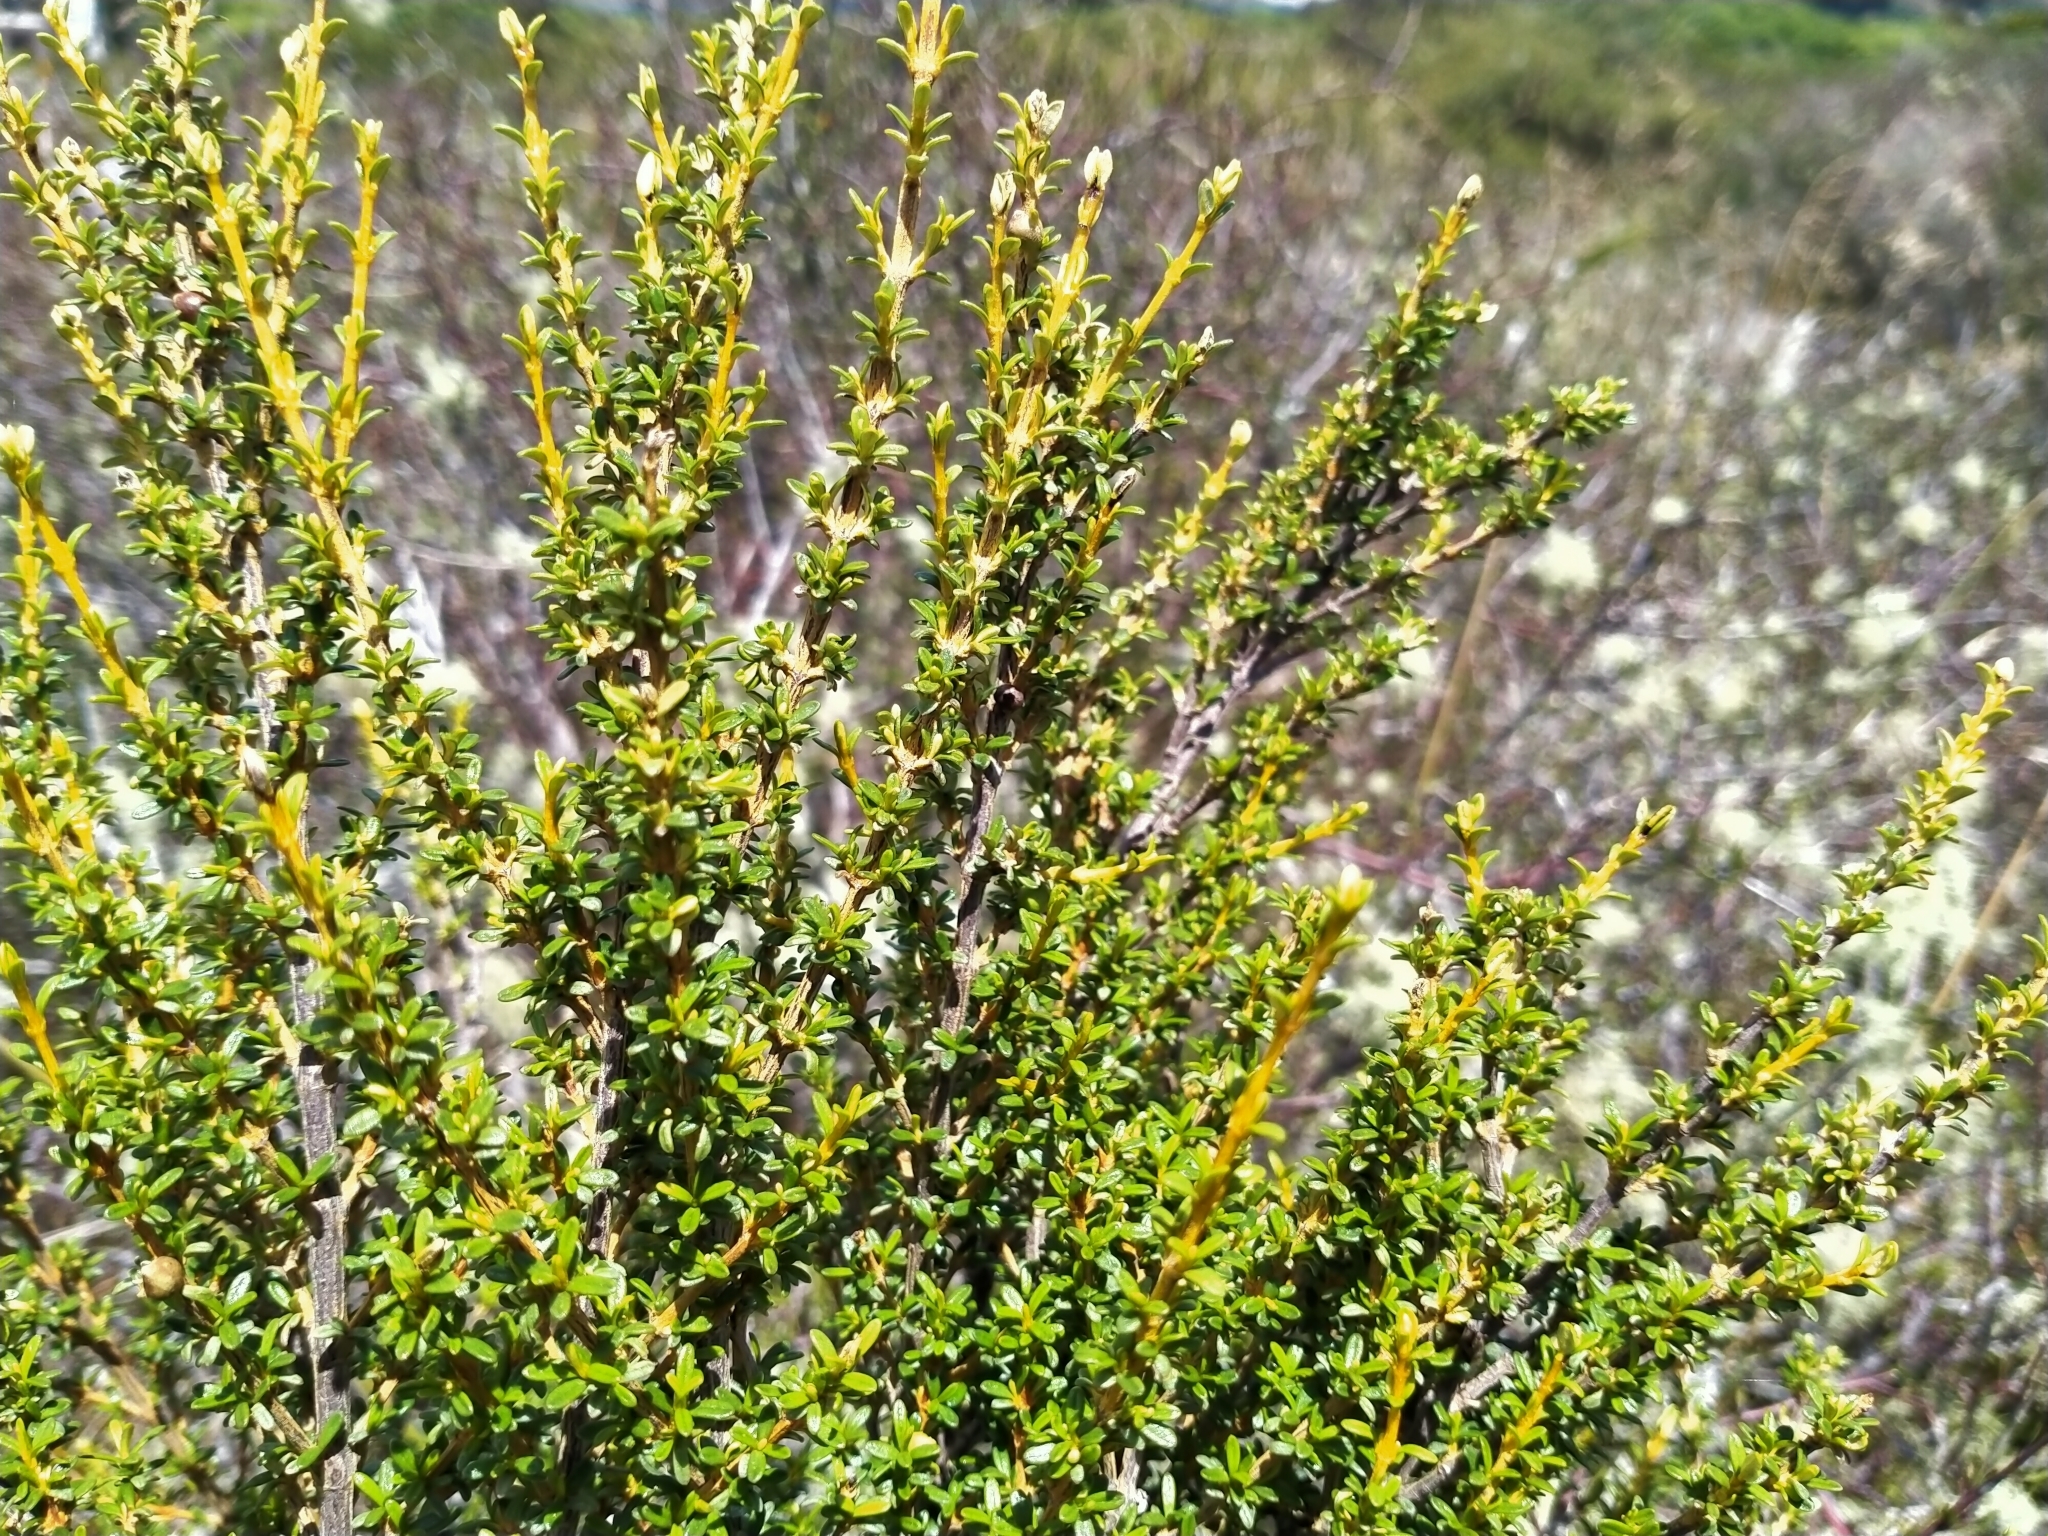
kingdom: Plantae
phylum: Tracheophyta
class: Magnoliopsida
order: Asterales
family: Asteraceae
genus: Olearia
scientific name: Olearia solandri
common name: Coastal daisybush
